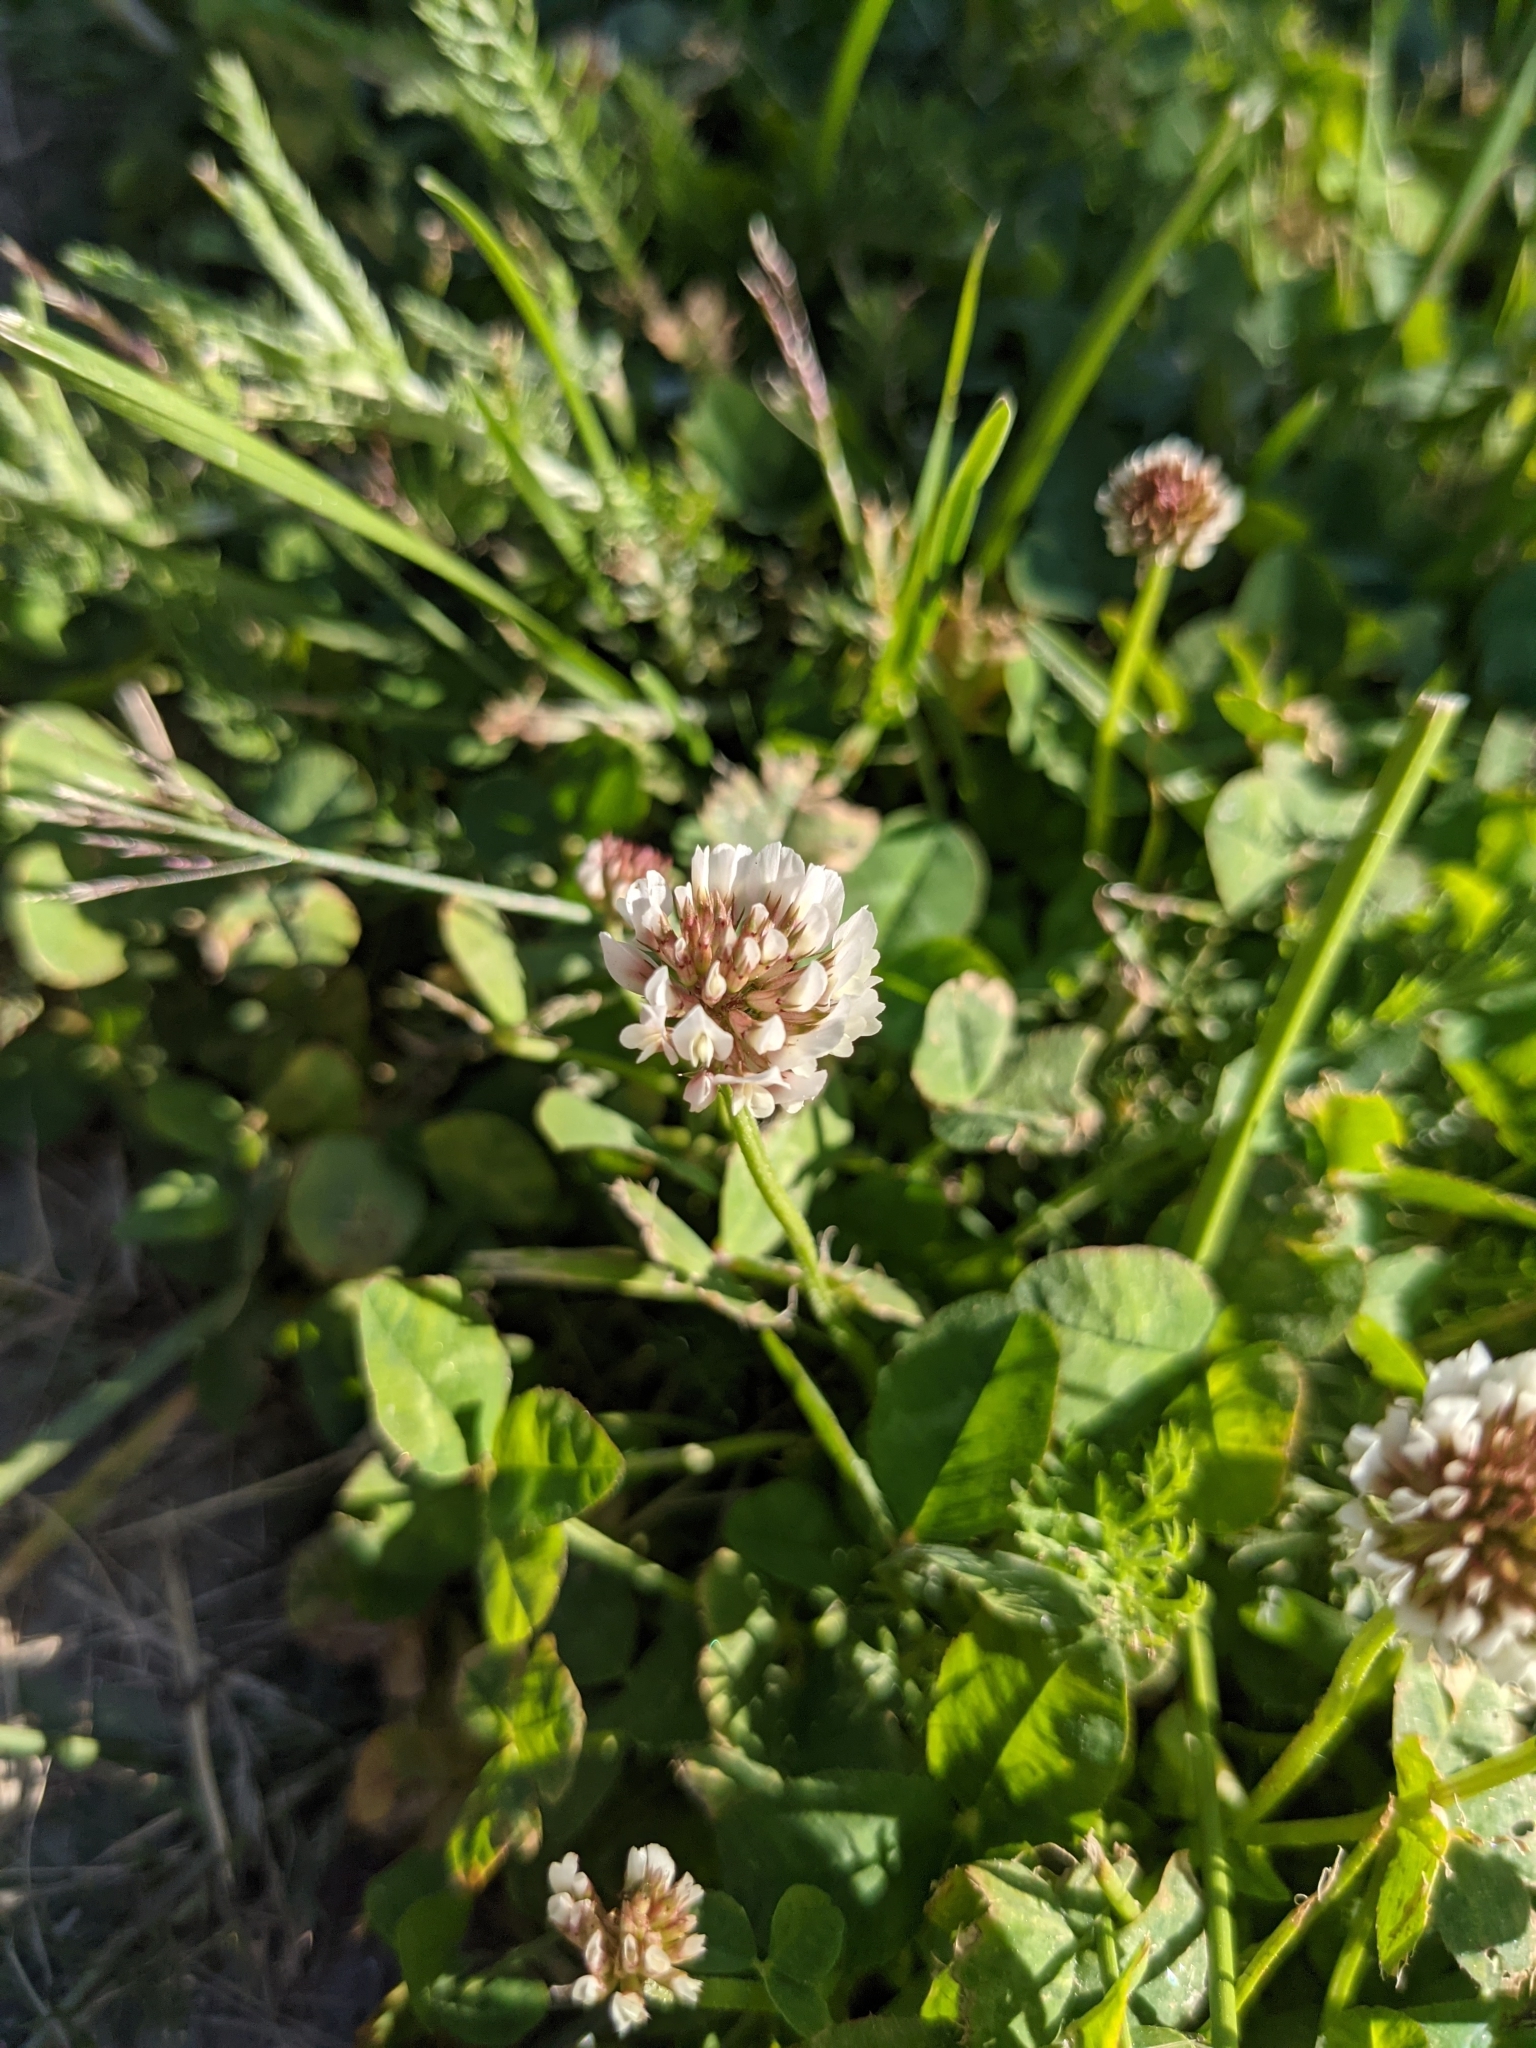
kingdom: Plantae
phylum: Tracheophyta
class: Magnoliopsida
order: Fabales
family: Fabaceae
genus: Trifolium
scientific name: Trifolium repens
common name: White clover
